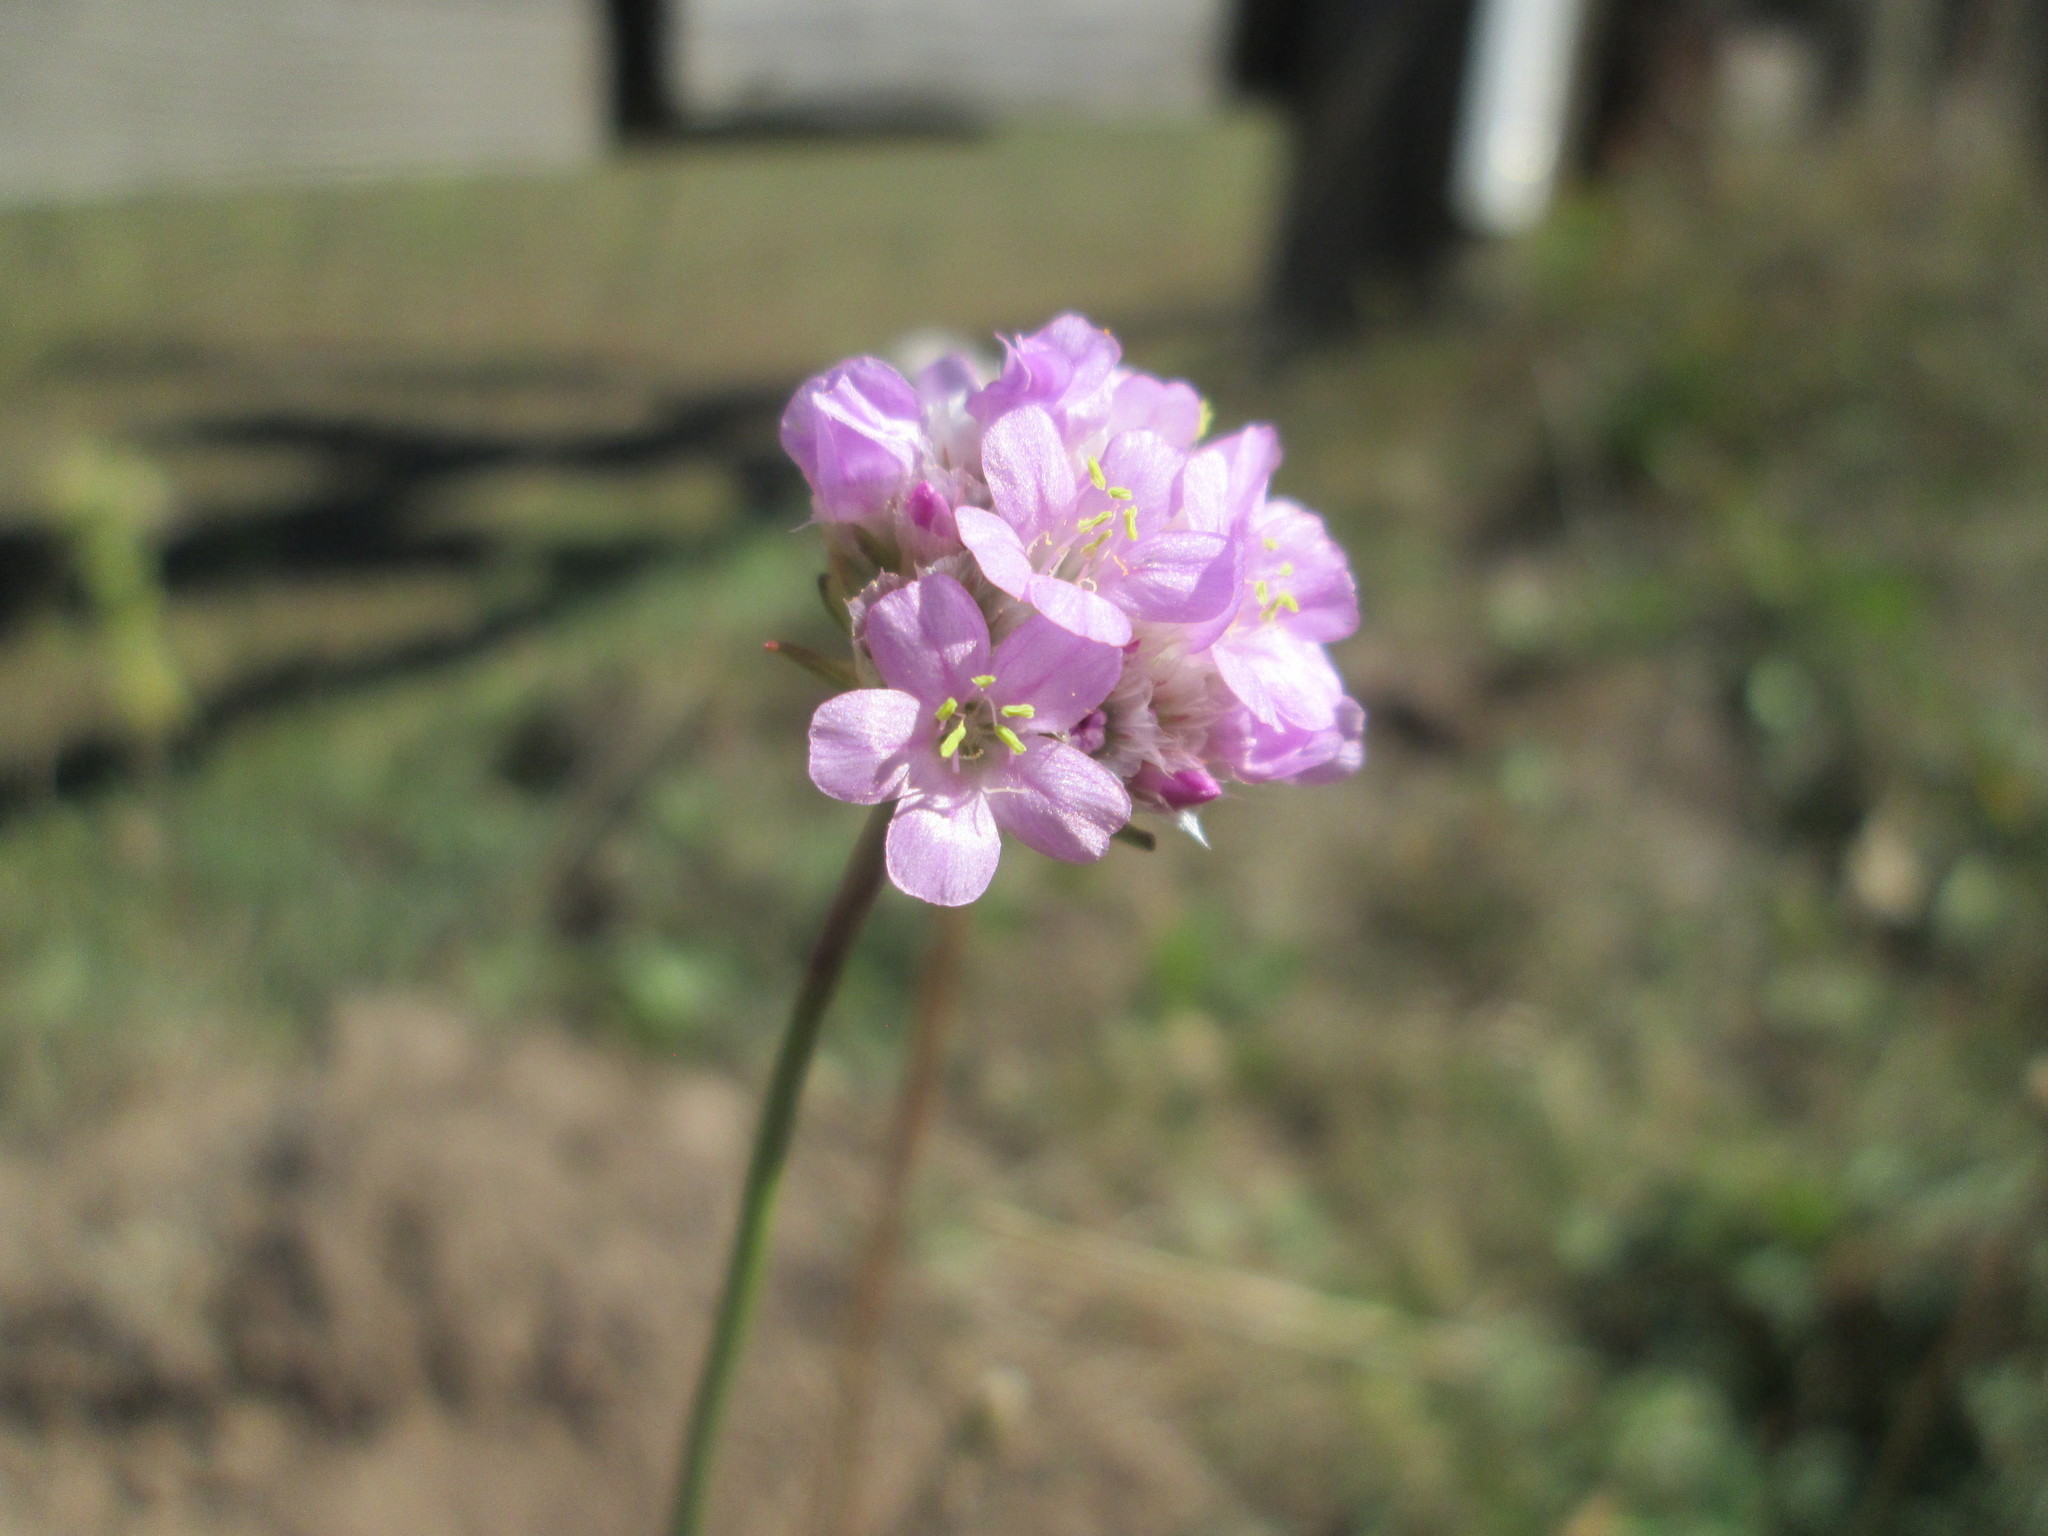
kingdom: Plantae
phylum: Tracheophyta
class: Magnoliopsida
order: Caryophyllales
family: Plumbaginaceae
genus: Armeria
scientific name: Armeria maritima
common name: Thrift
